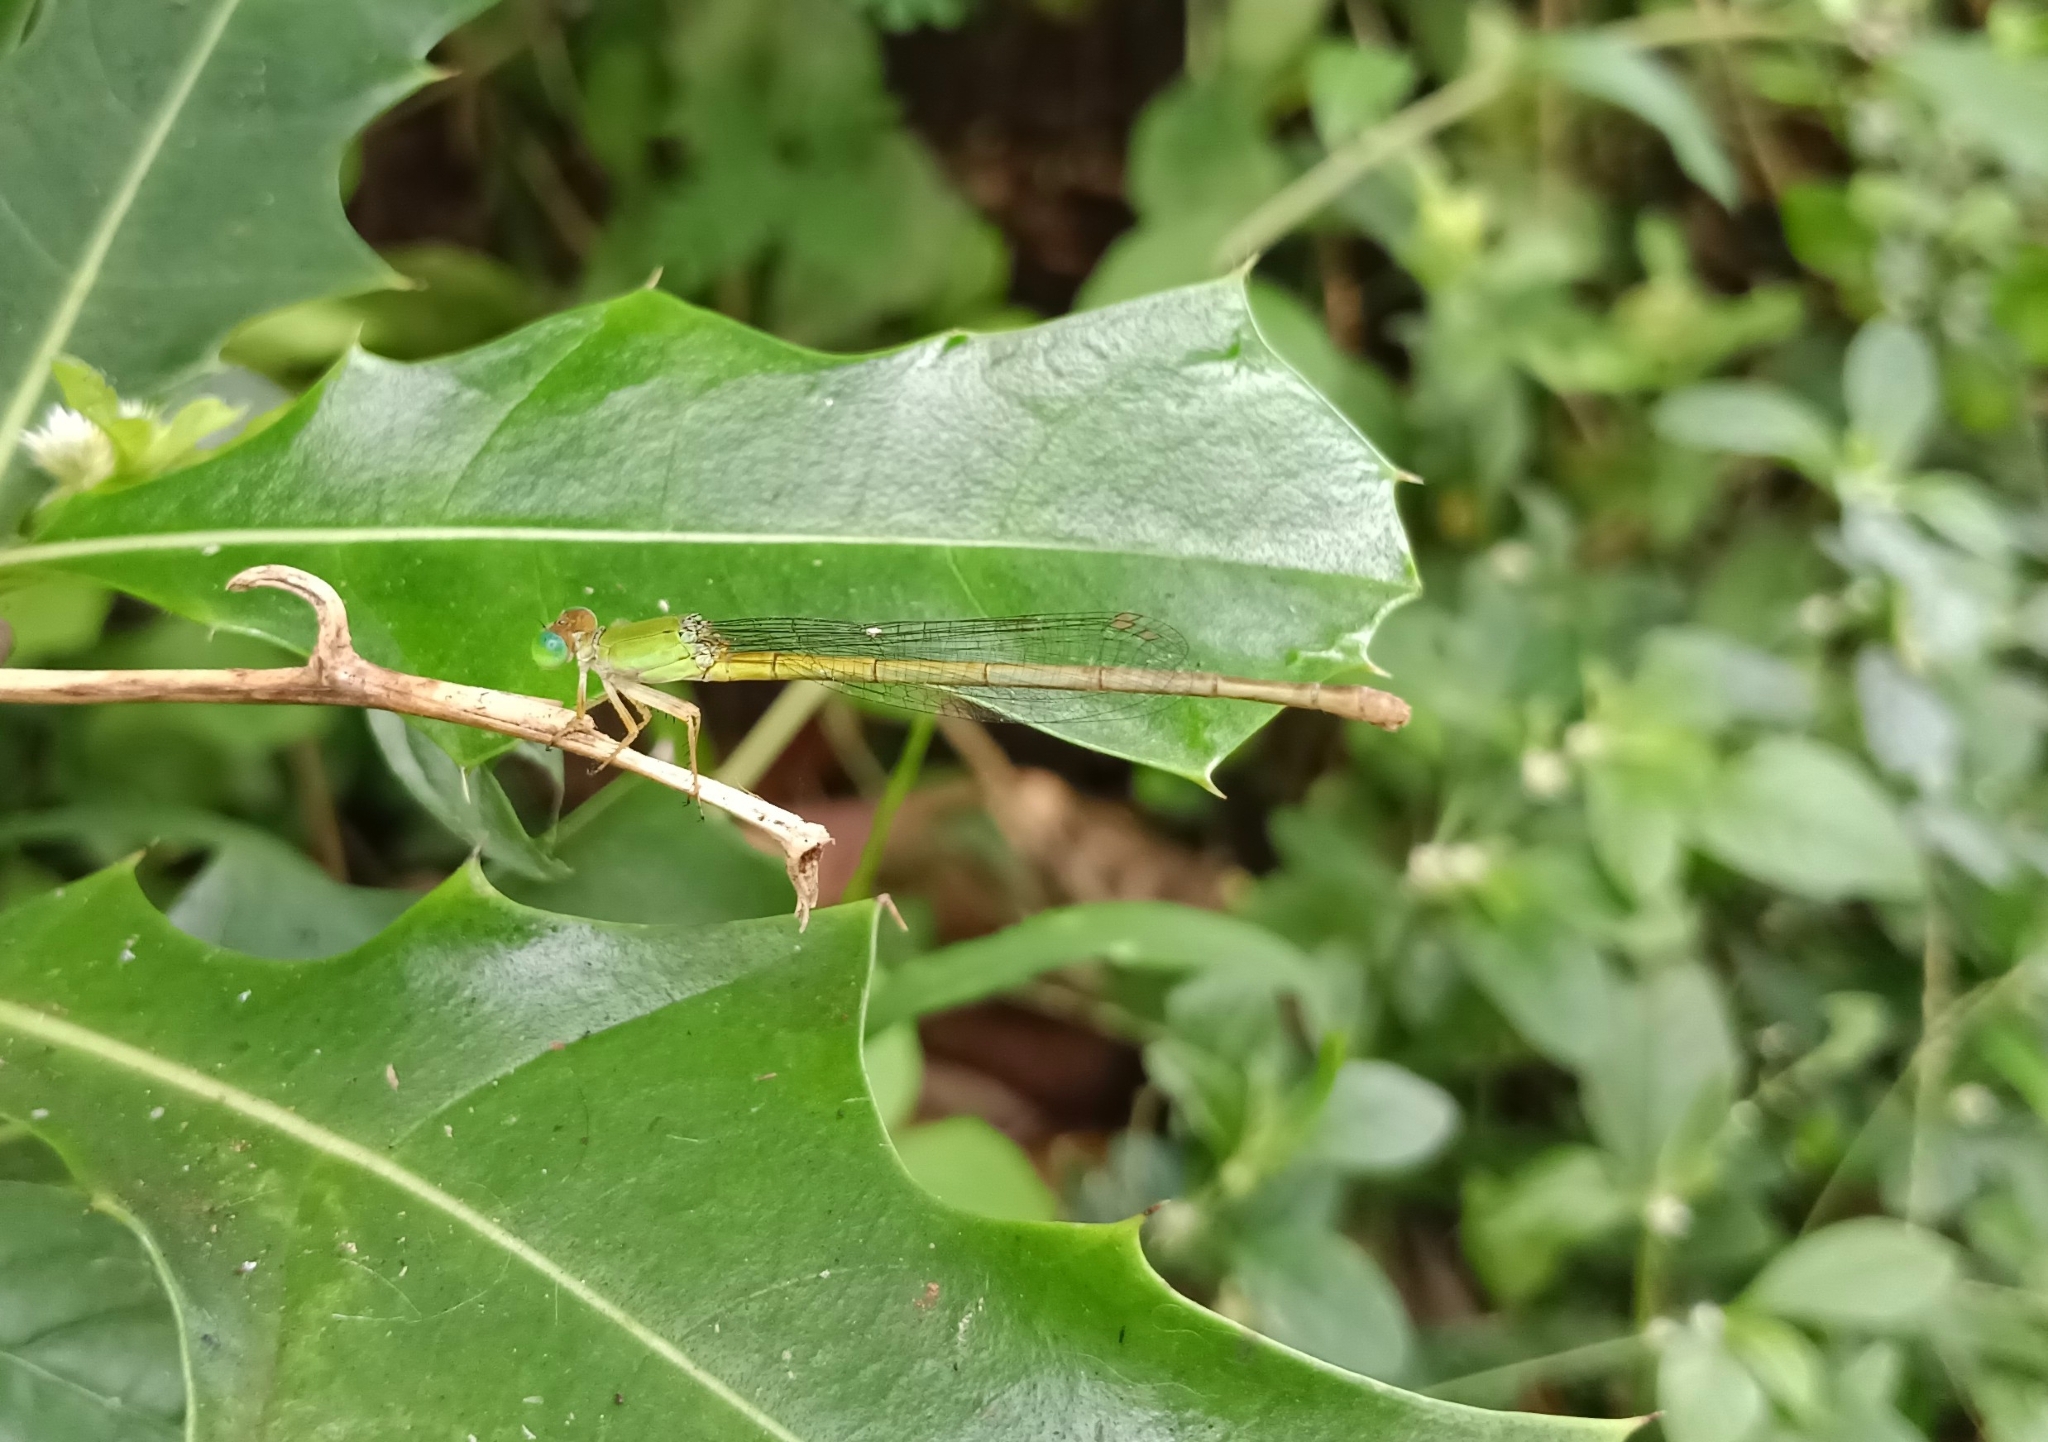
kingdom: Animalia
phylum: Arthropoda
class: Insecta
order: Odonata
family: Coenagrionidae
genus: Ceriagrion
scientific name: Ceriagrion coromandelianum
